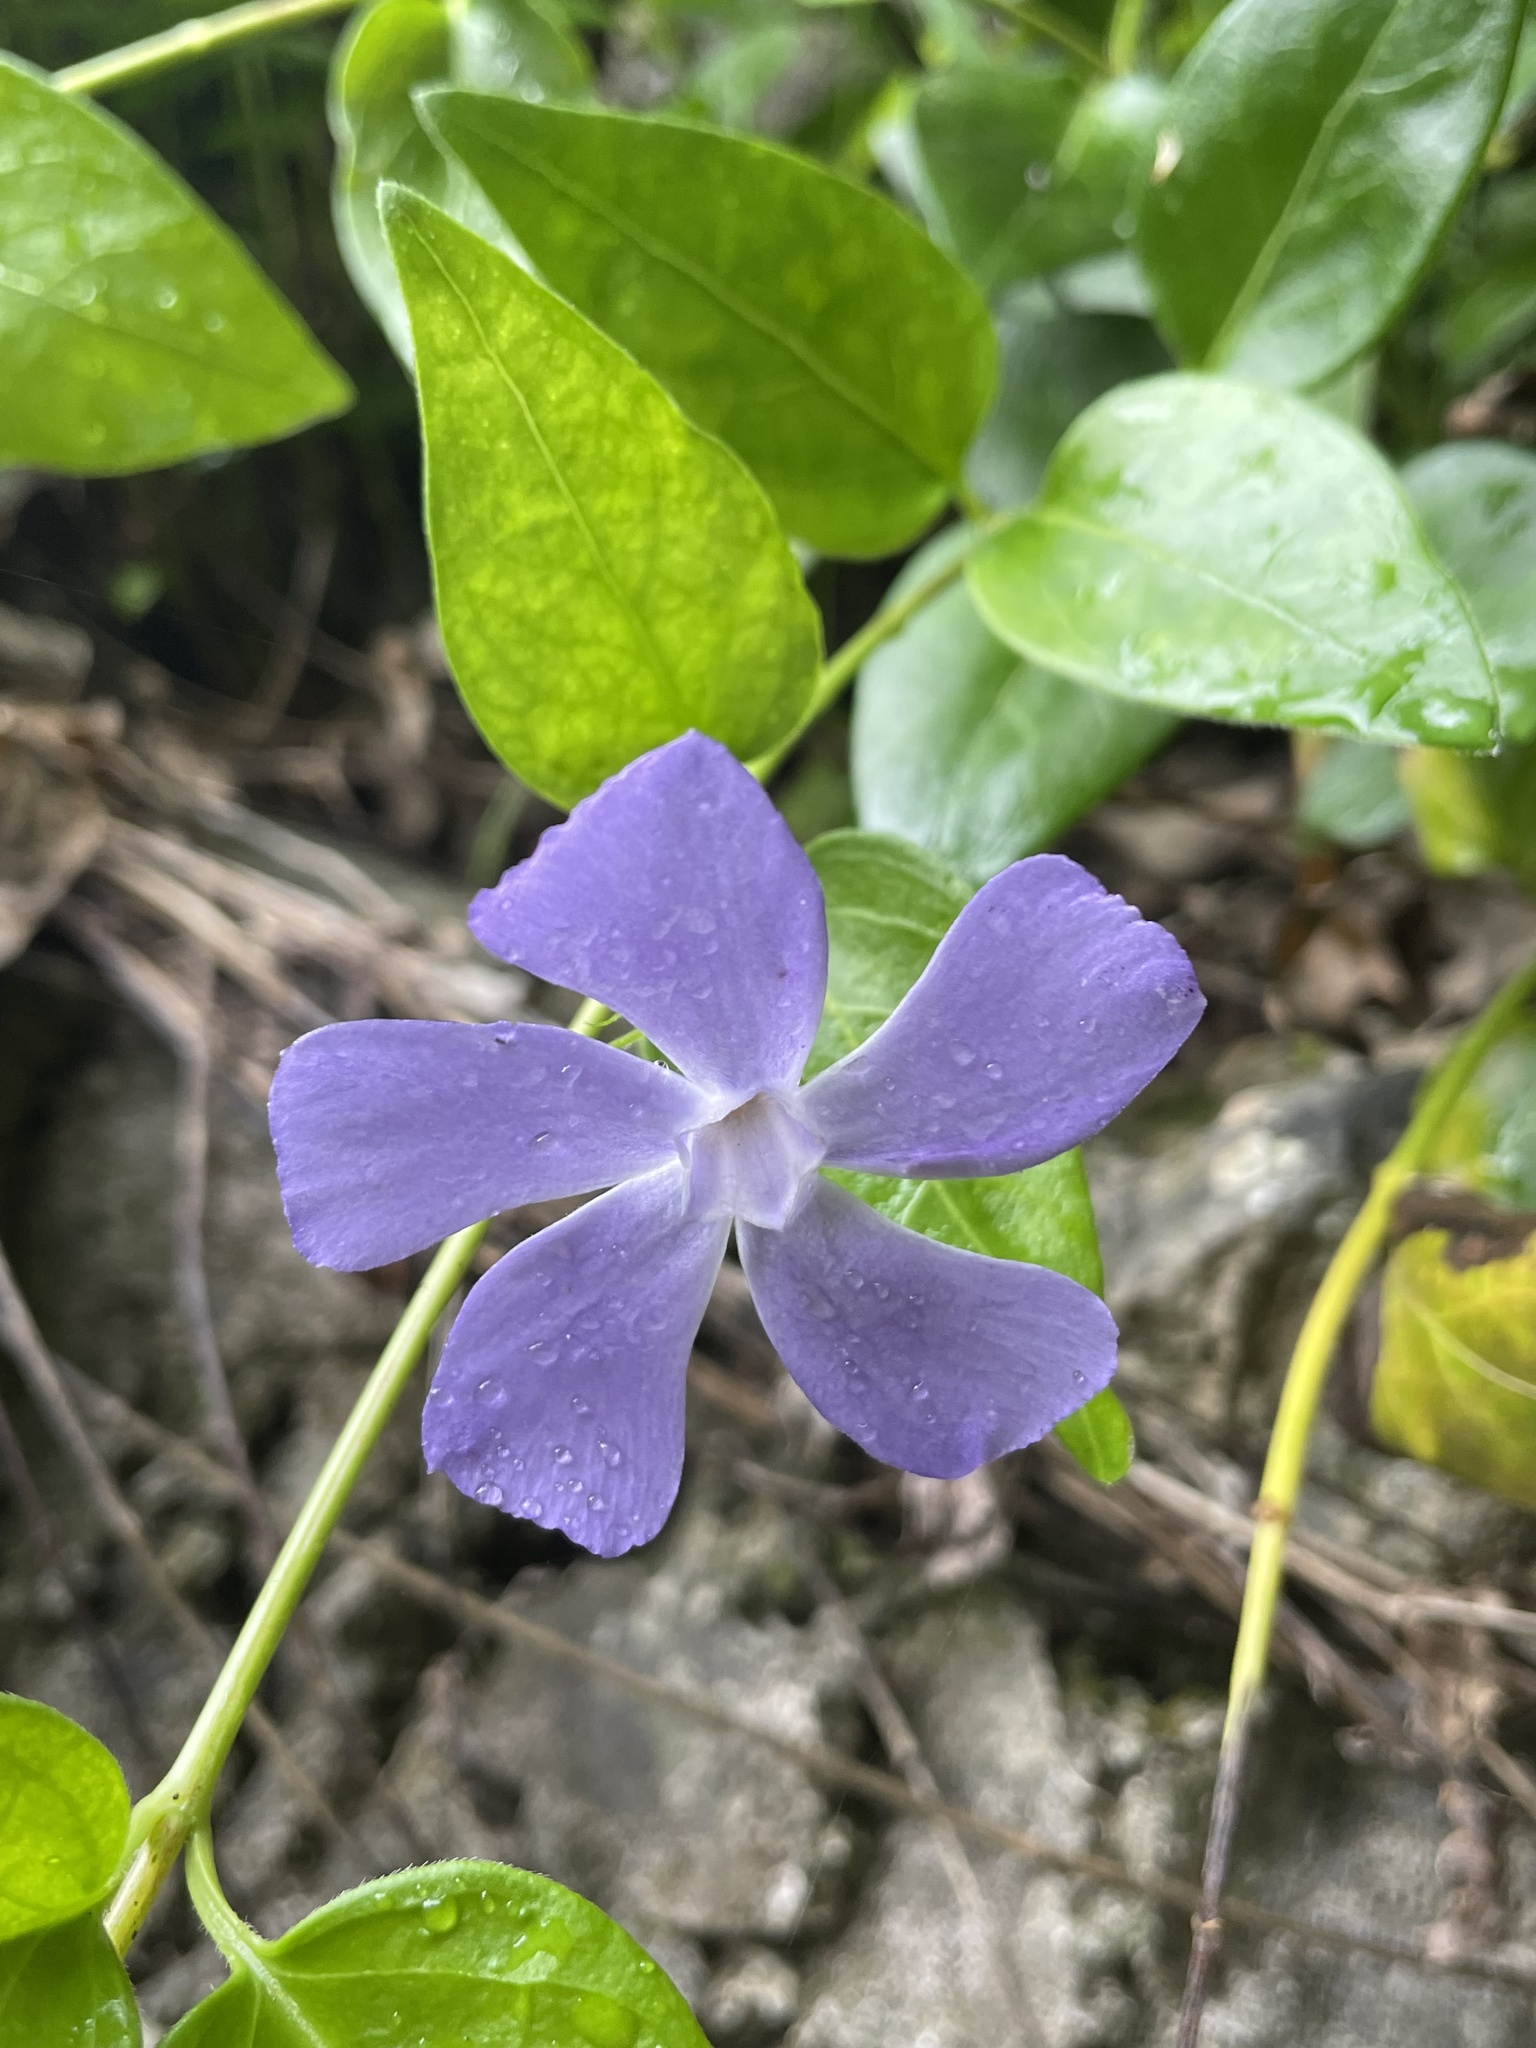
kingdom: Plantae
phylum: Tracheophyta
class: Magnoliopsida
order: Gentianales
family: Apocynaceae
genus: Vinca
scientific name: Vinca major
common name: Greater periwinkle
